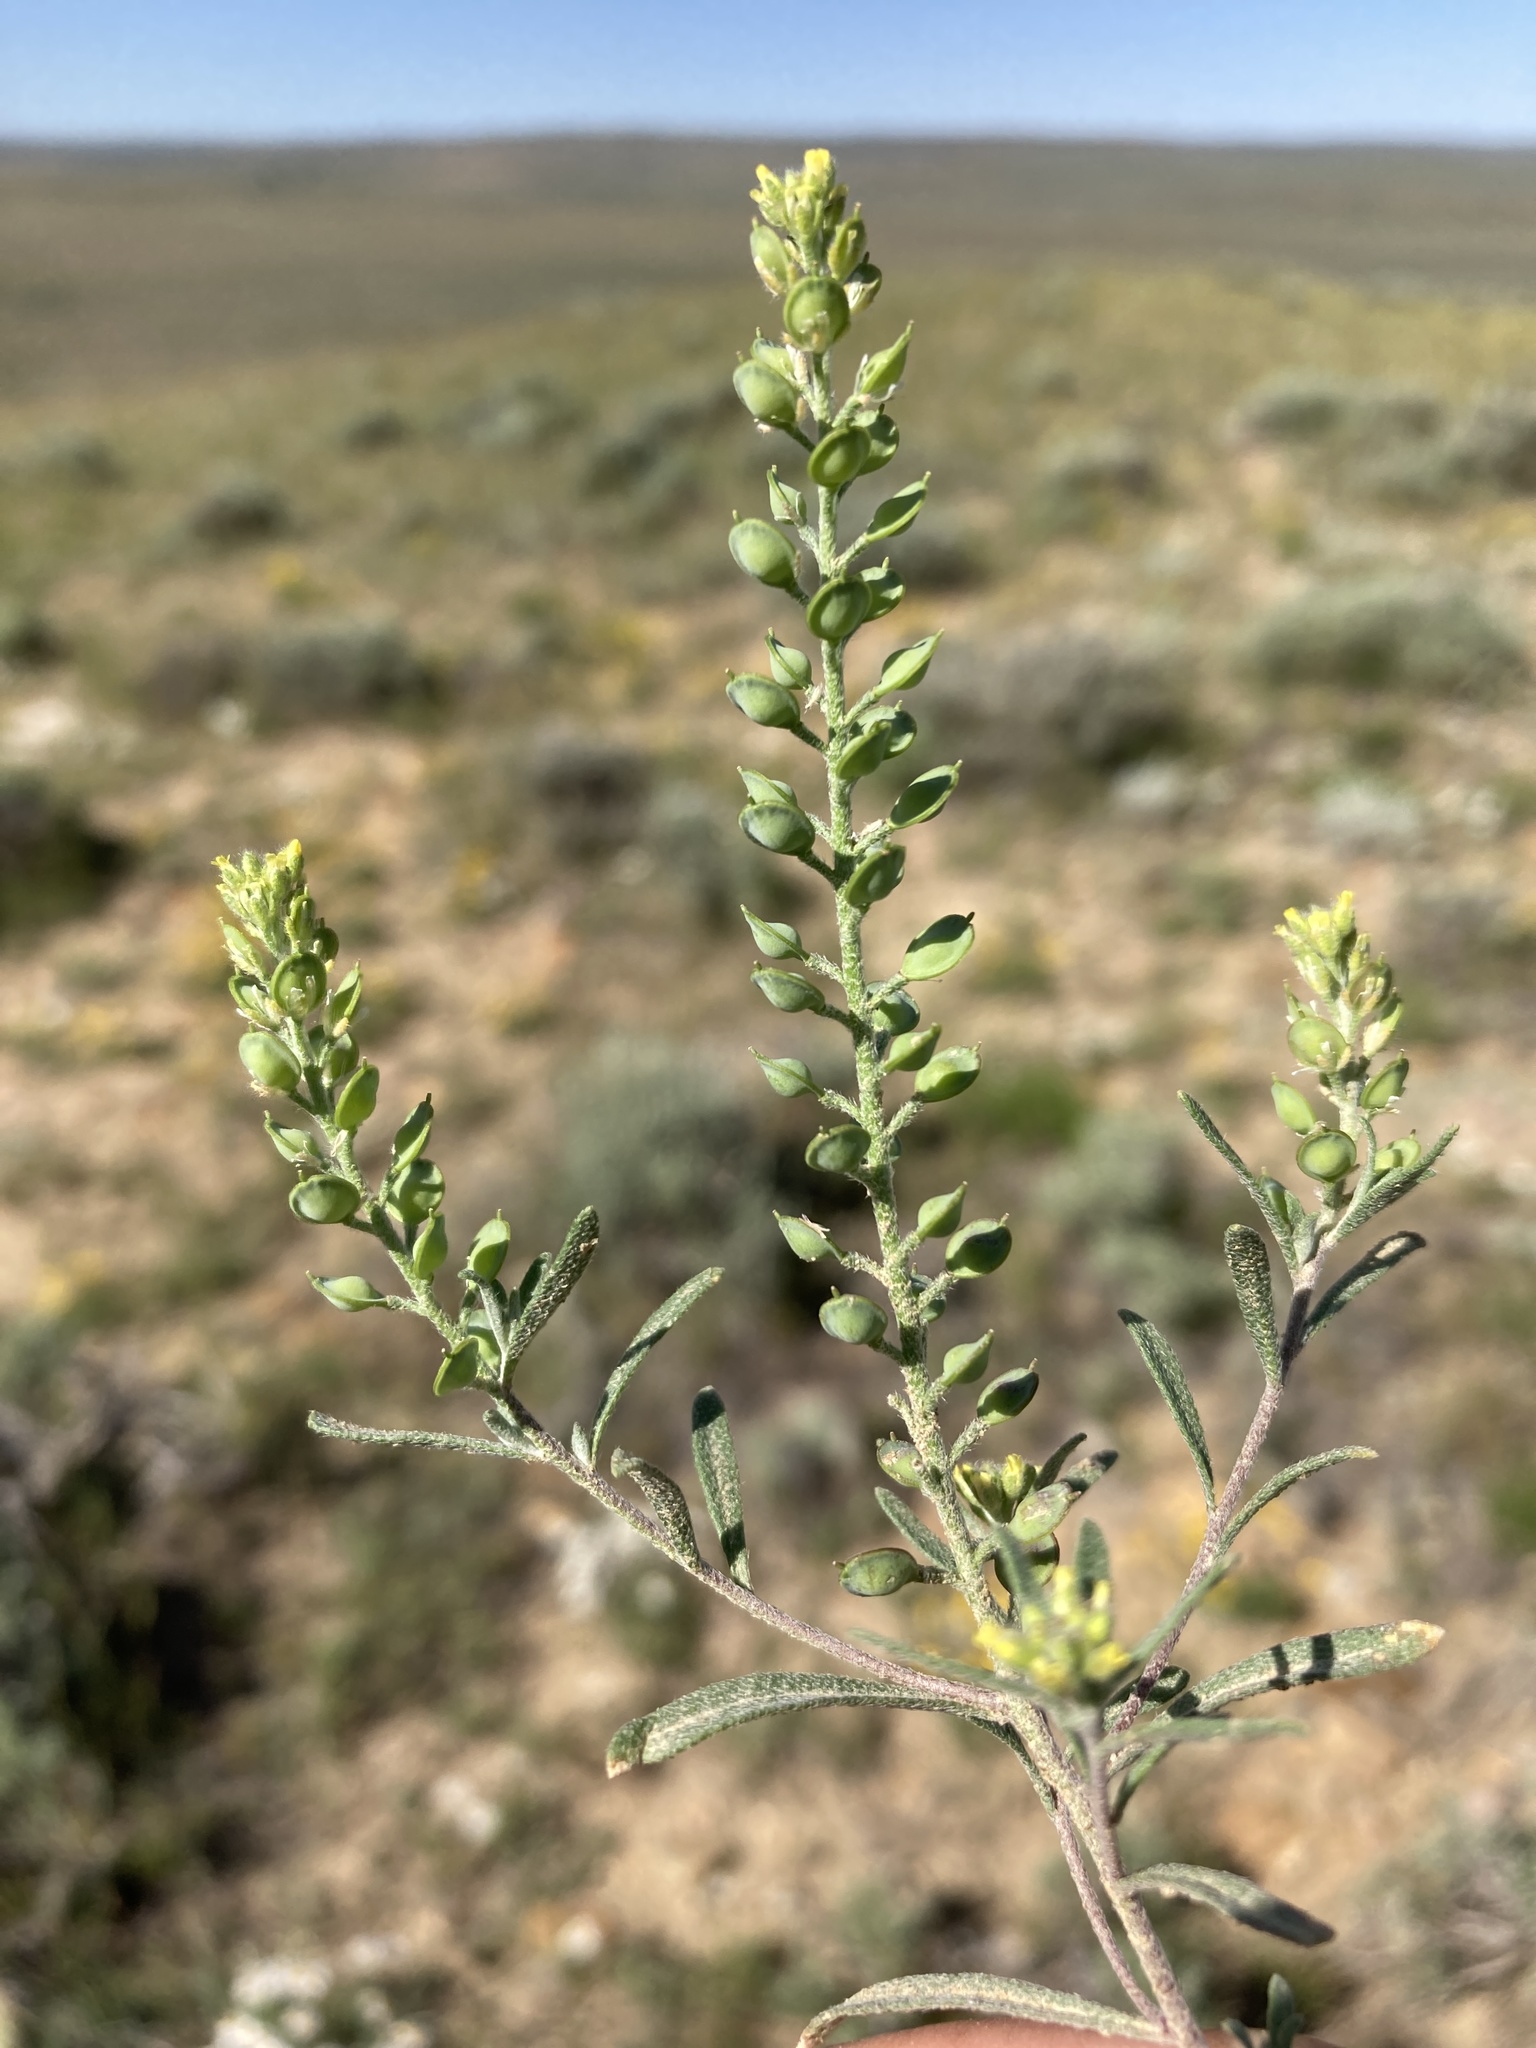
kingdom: Plantae
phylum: Tracheophyta
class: Magnoliopsida
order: Brassicales
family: Brassicaceae
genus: Alyssum
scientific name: Alyssum turkestanicum
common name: Desert alyssum
